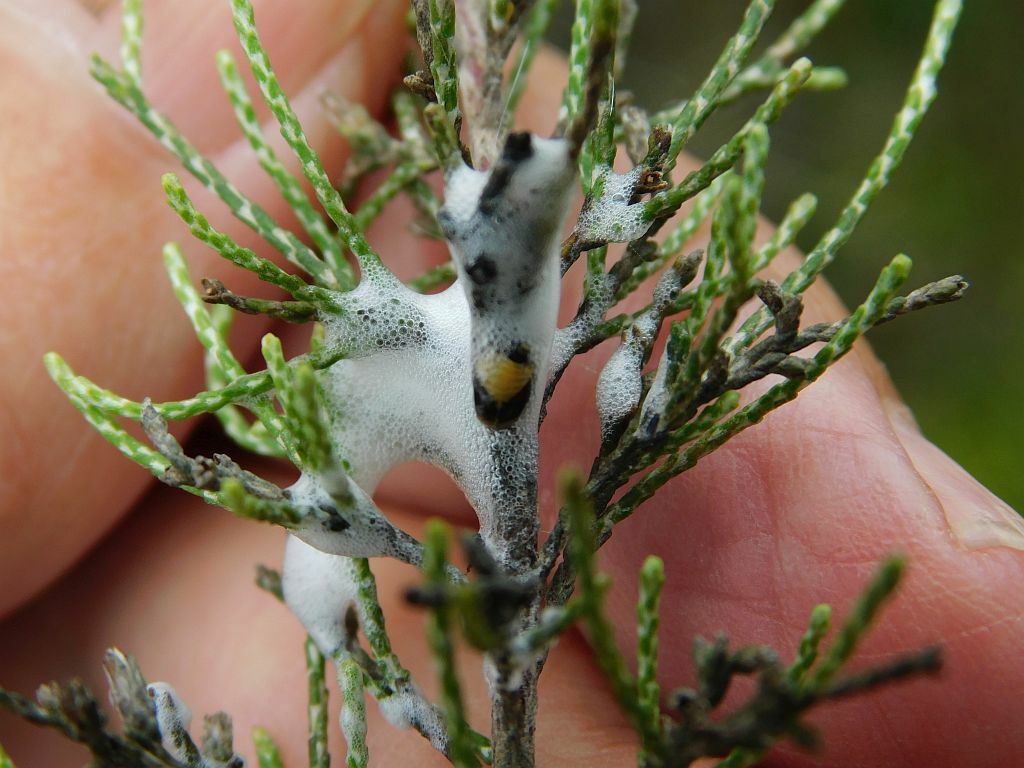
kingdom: Plantae
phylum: Tracheophyta
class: Magnoliopsida
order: Asterales
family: Asteraceae
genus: Dicerothamnus
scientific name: Dicerothamnus rhinocerotis
